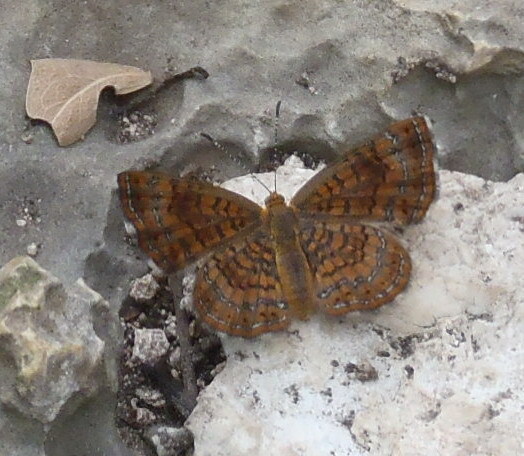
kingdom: Animalia
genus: Calephelis
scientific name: Calephelis nemesis
